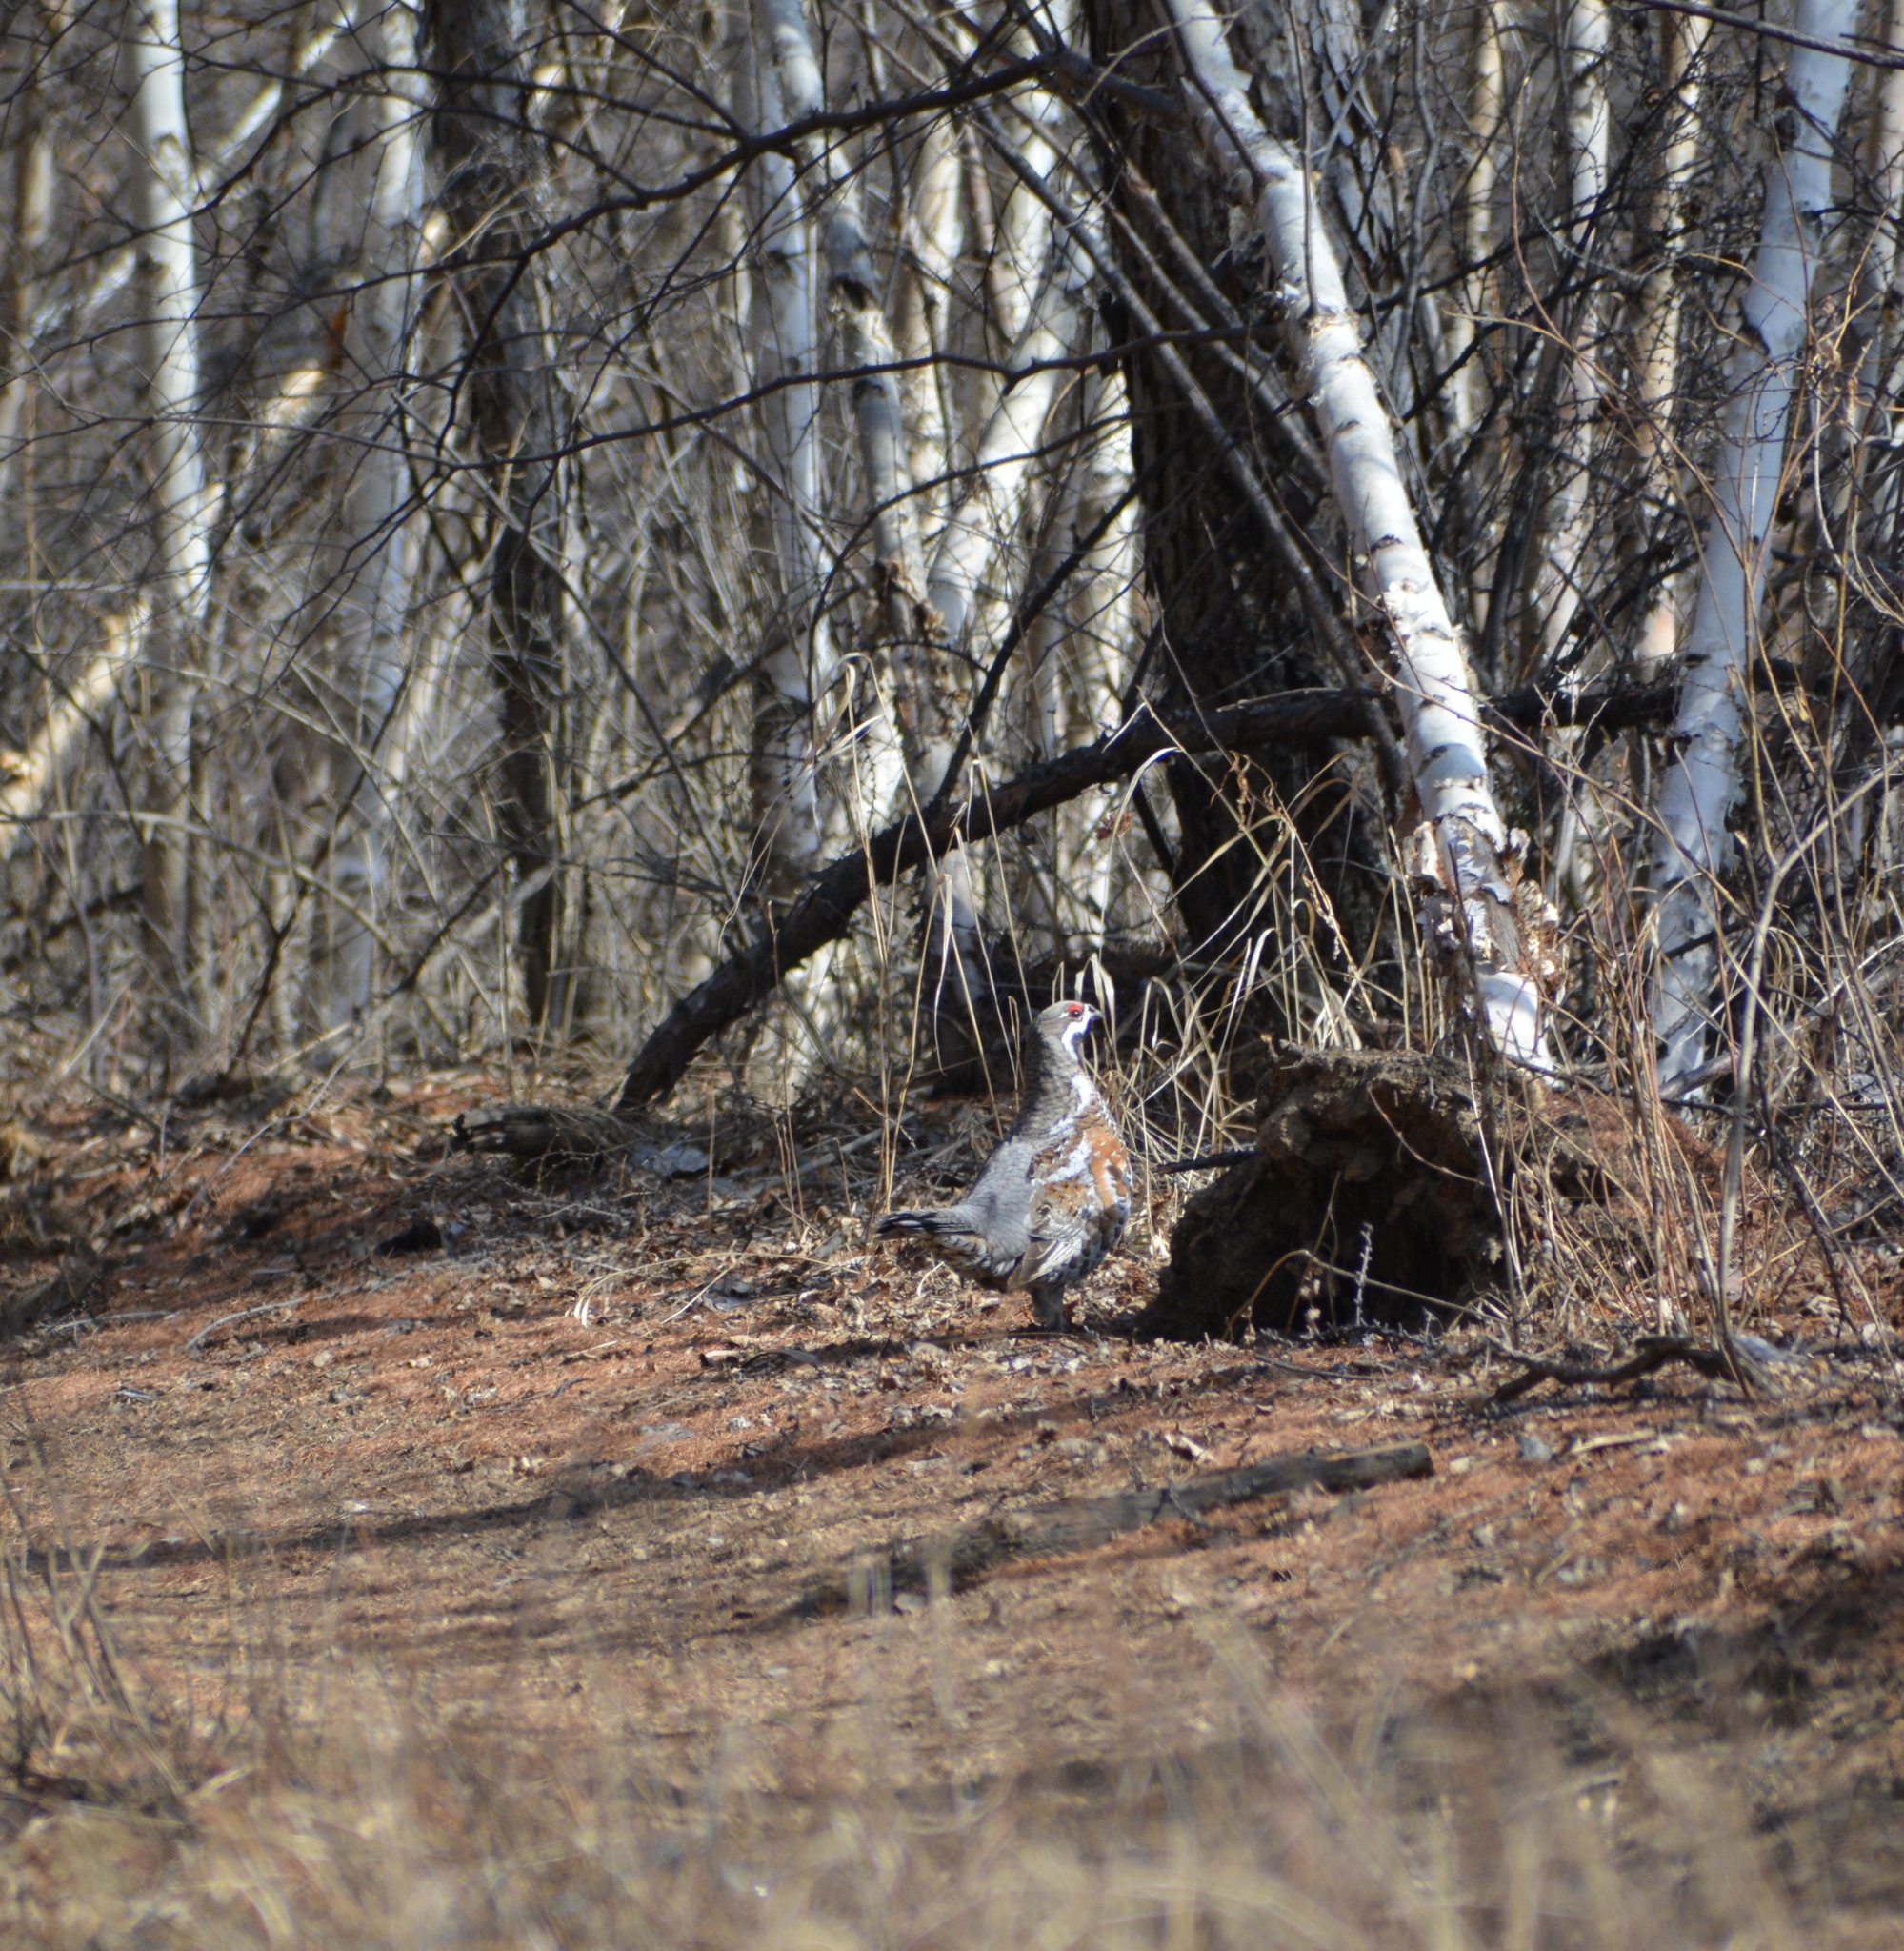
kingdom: Animalia
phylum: Chordata
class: Aves
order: Galliformes
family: Phasianidae
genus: Tetrastes
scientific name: Tetrastes bonasia
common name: Hazel grouse
